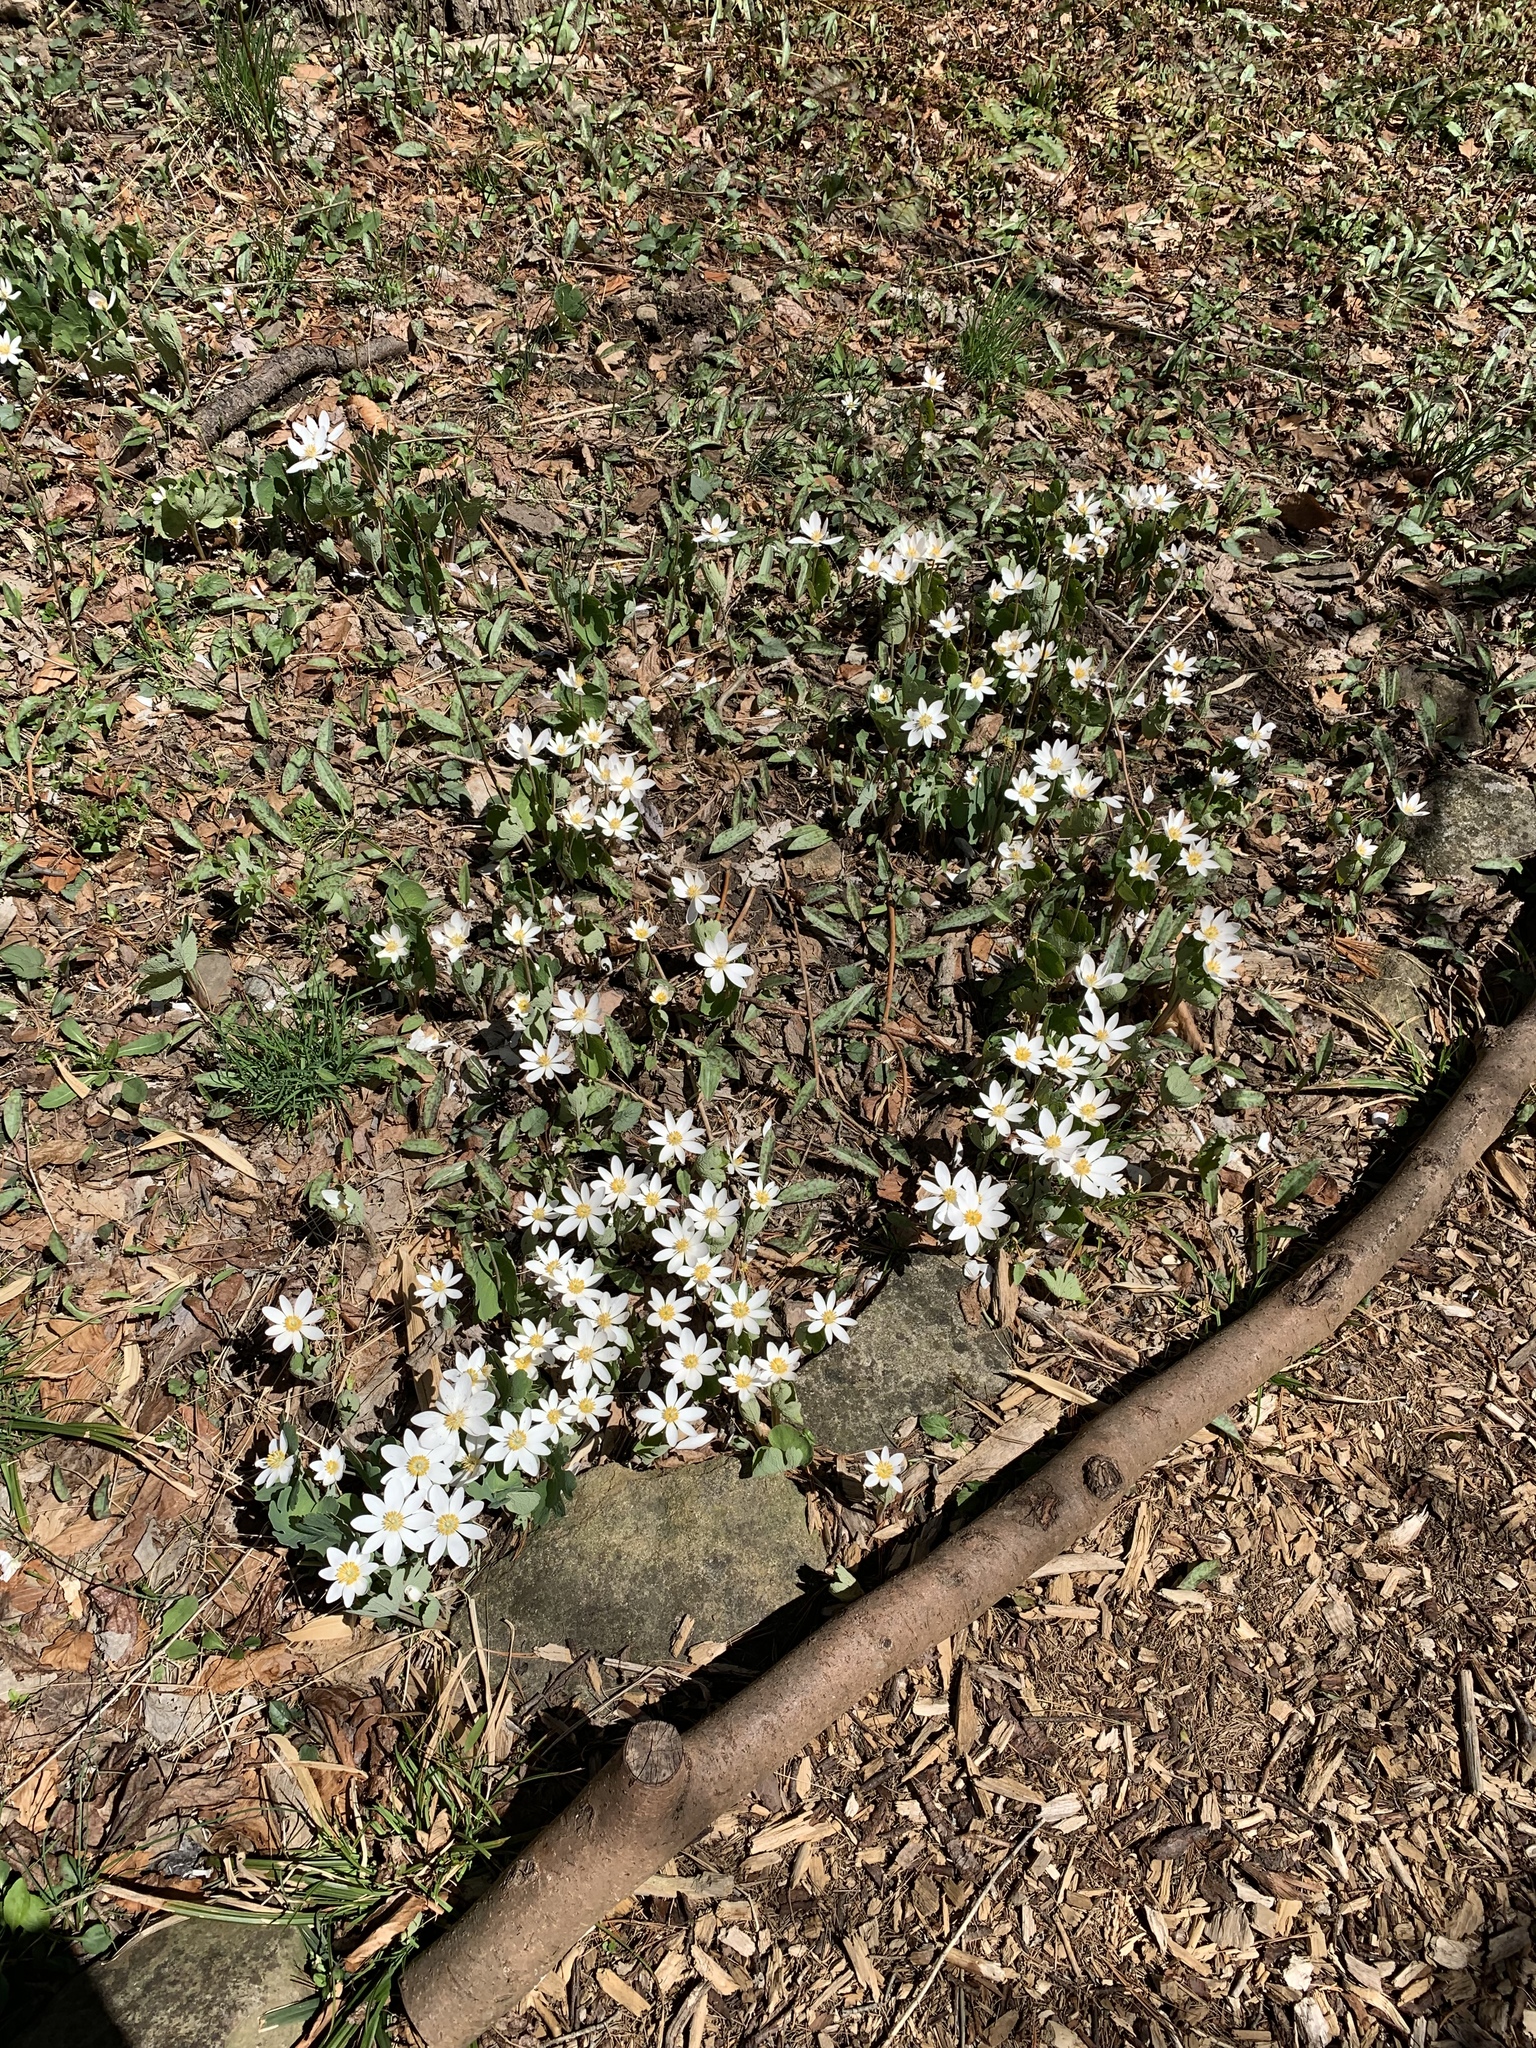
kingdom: Plantae
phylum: Tracheophyta
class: Magnoliopsida
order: Ranunculales
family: Papaveraceae
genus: Sanguinaria
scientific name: Sanguinaria canadensis
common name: Bloodroot
